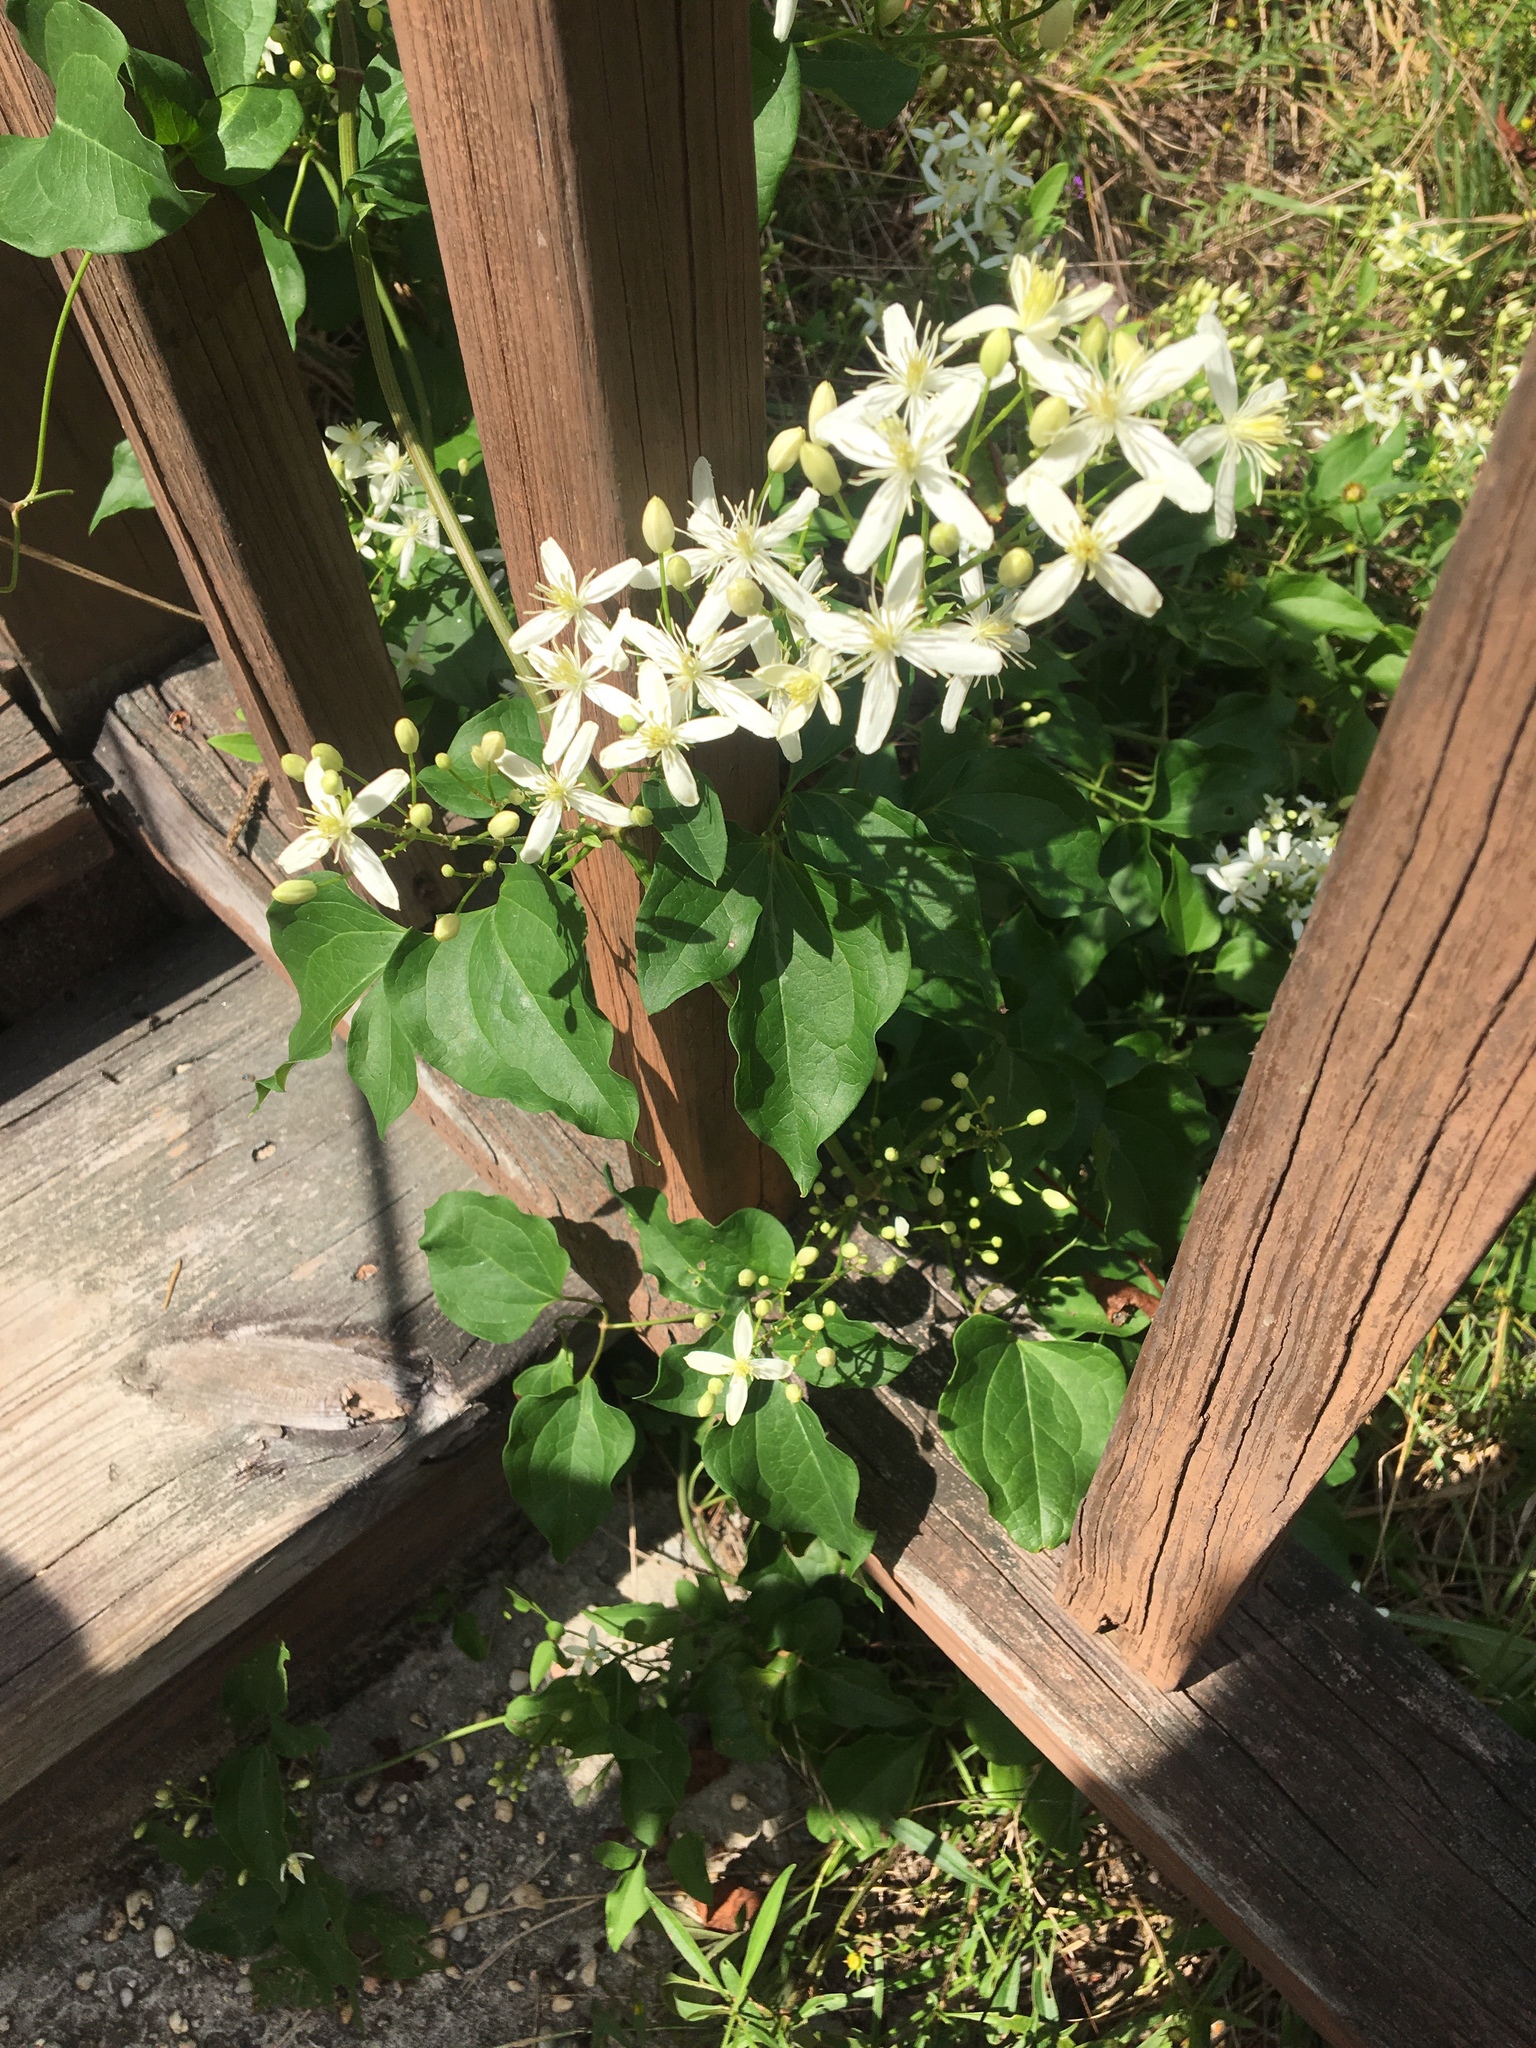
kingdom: Plantae
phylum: Tracheophyta
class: Magnoliopsida
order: Ranunculales
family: Ranunculaceae
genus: Clematis
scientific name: Clematis terniflora
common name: Sweet autumn clematis
